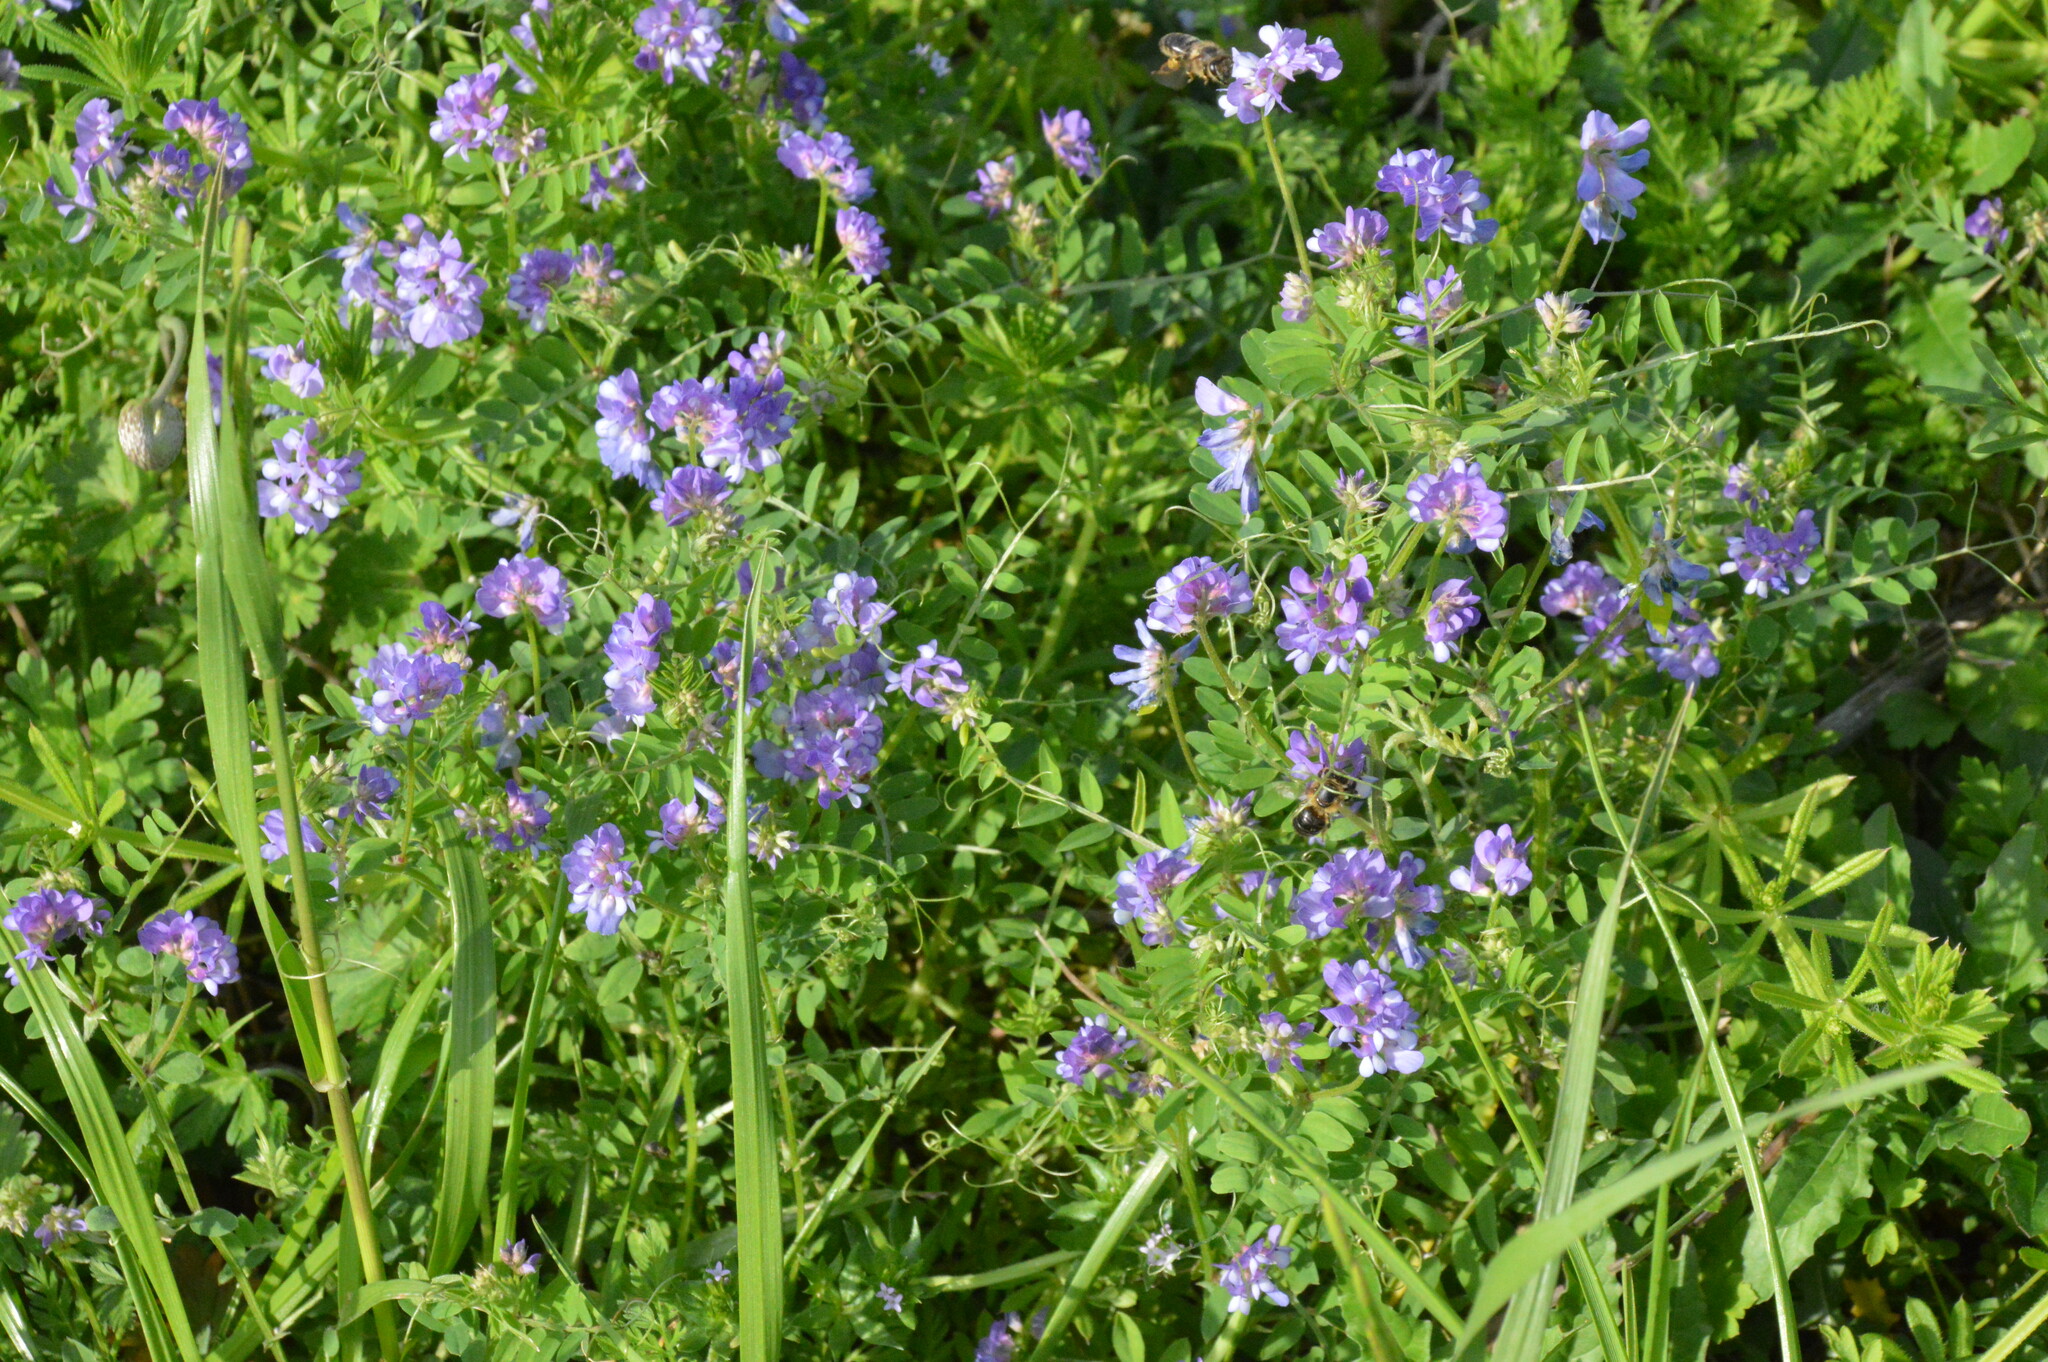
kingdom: Plantae
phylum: Tracheophyta
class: Magnoliopsida
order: Fabales
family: Fabaceae
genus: Vicia
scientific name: Vicia ludoviciana
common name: Louisiana vetch
